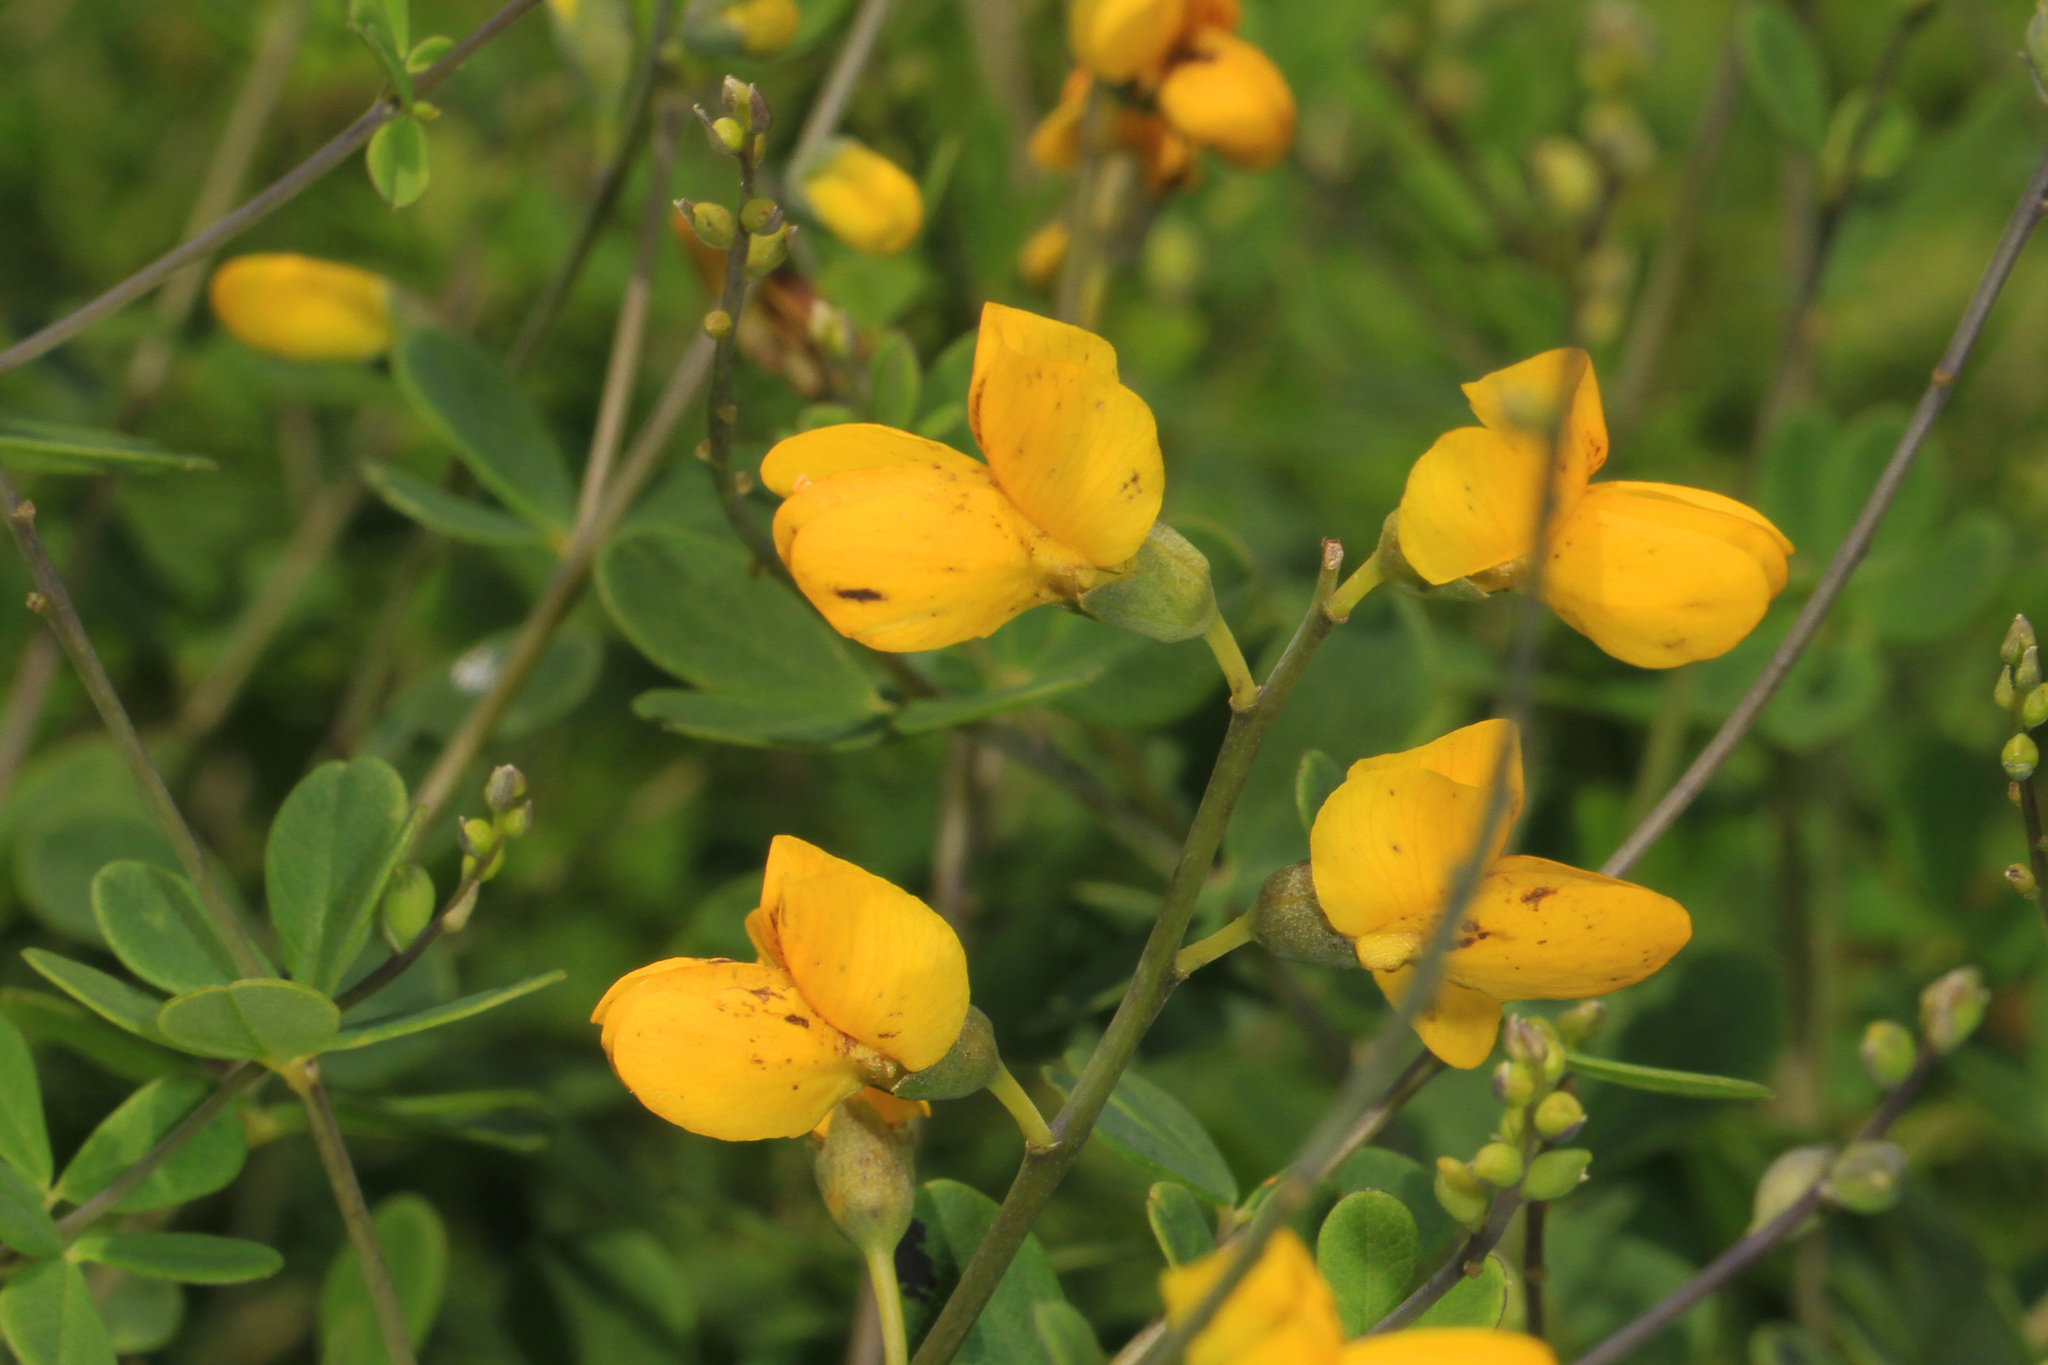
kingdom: Plantae
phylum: Tracheophyta
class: Magnoliopsida
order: Fabales
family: Fabaceae
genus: Baptisia
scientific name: Baptisia sphaerocarpa
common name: Round wild indigo
